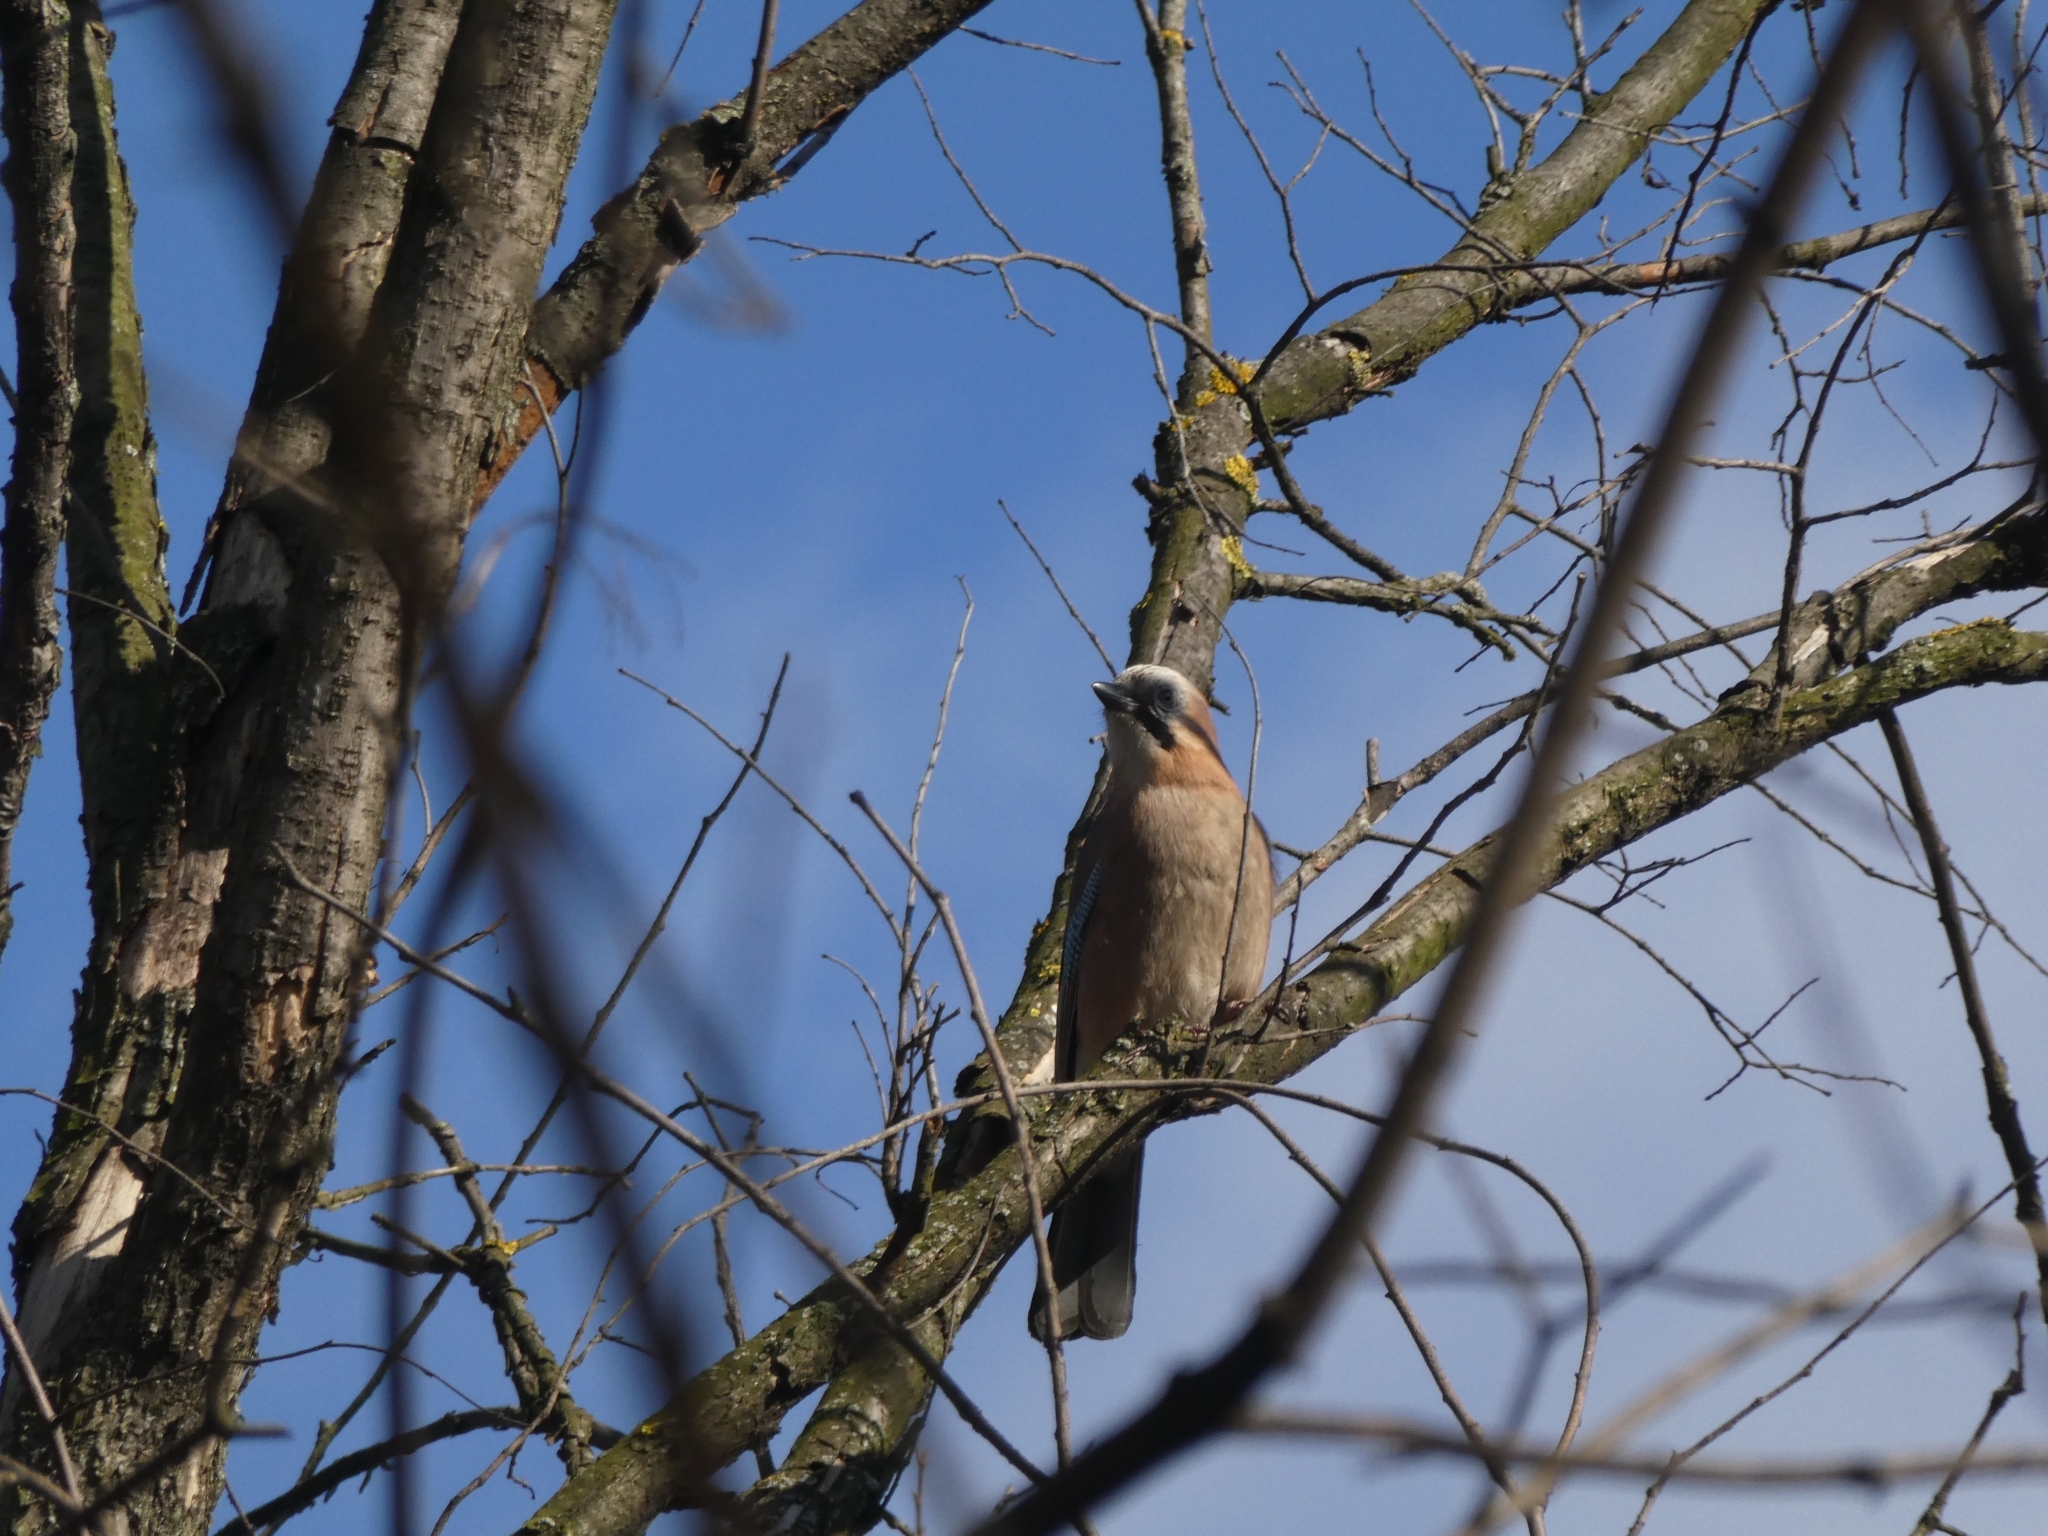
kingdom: Animalia
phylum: Chordata
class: Aves
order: Passeriformes
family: Corvidae
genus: Garrulus
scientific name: Garrulus glandarius
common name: Eurasian jay
